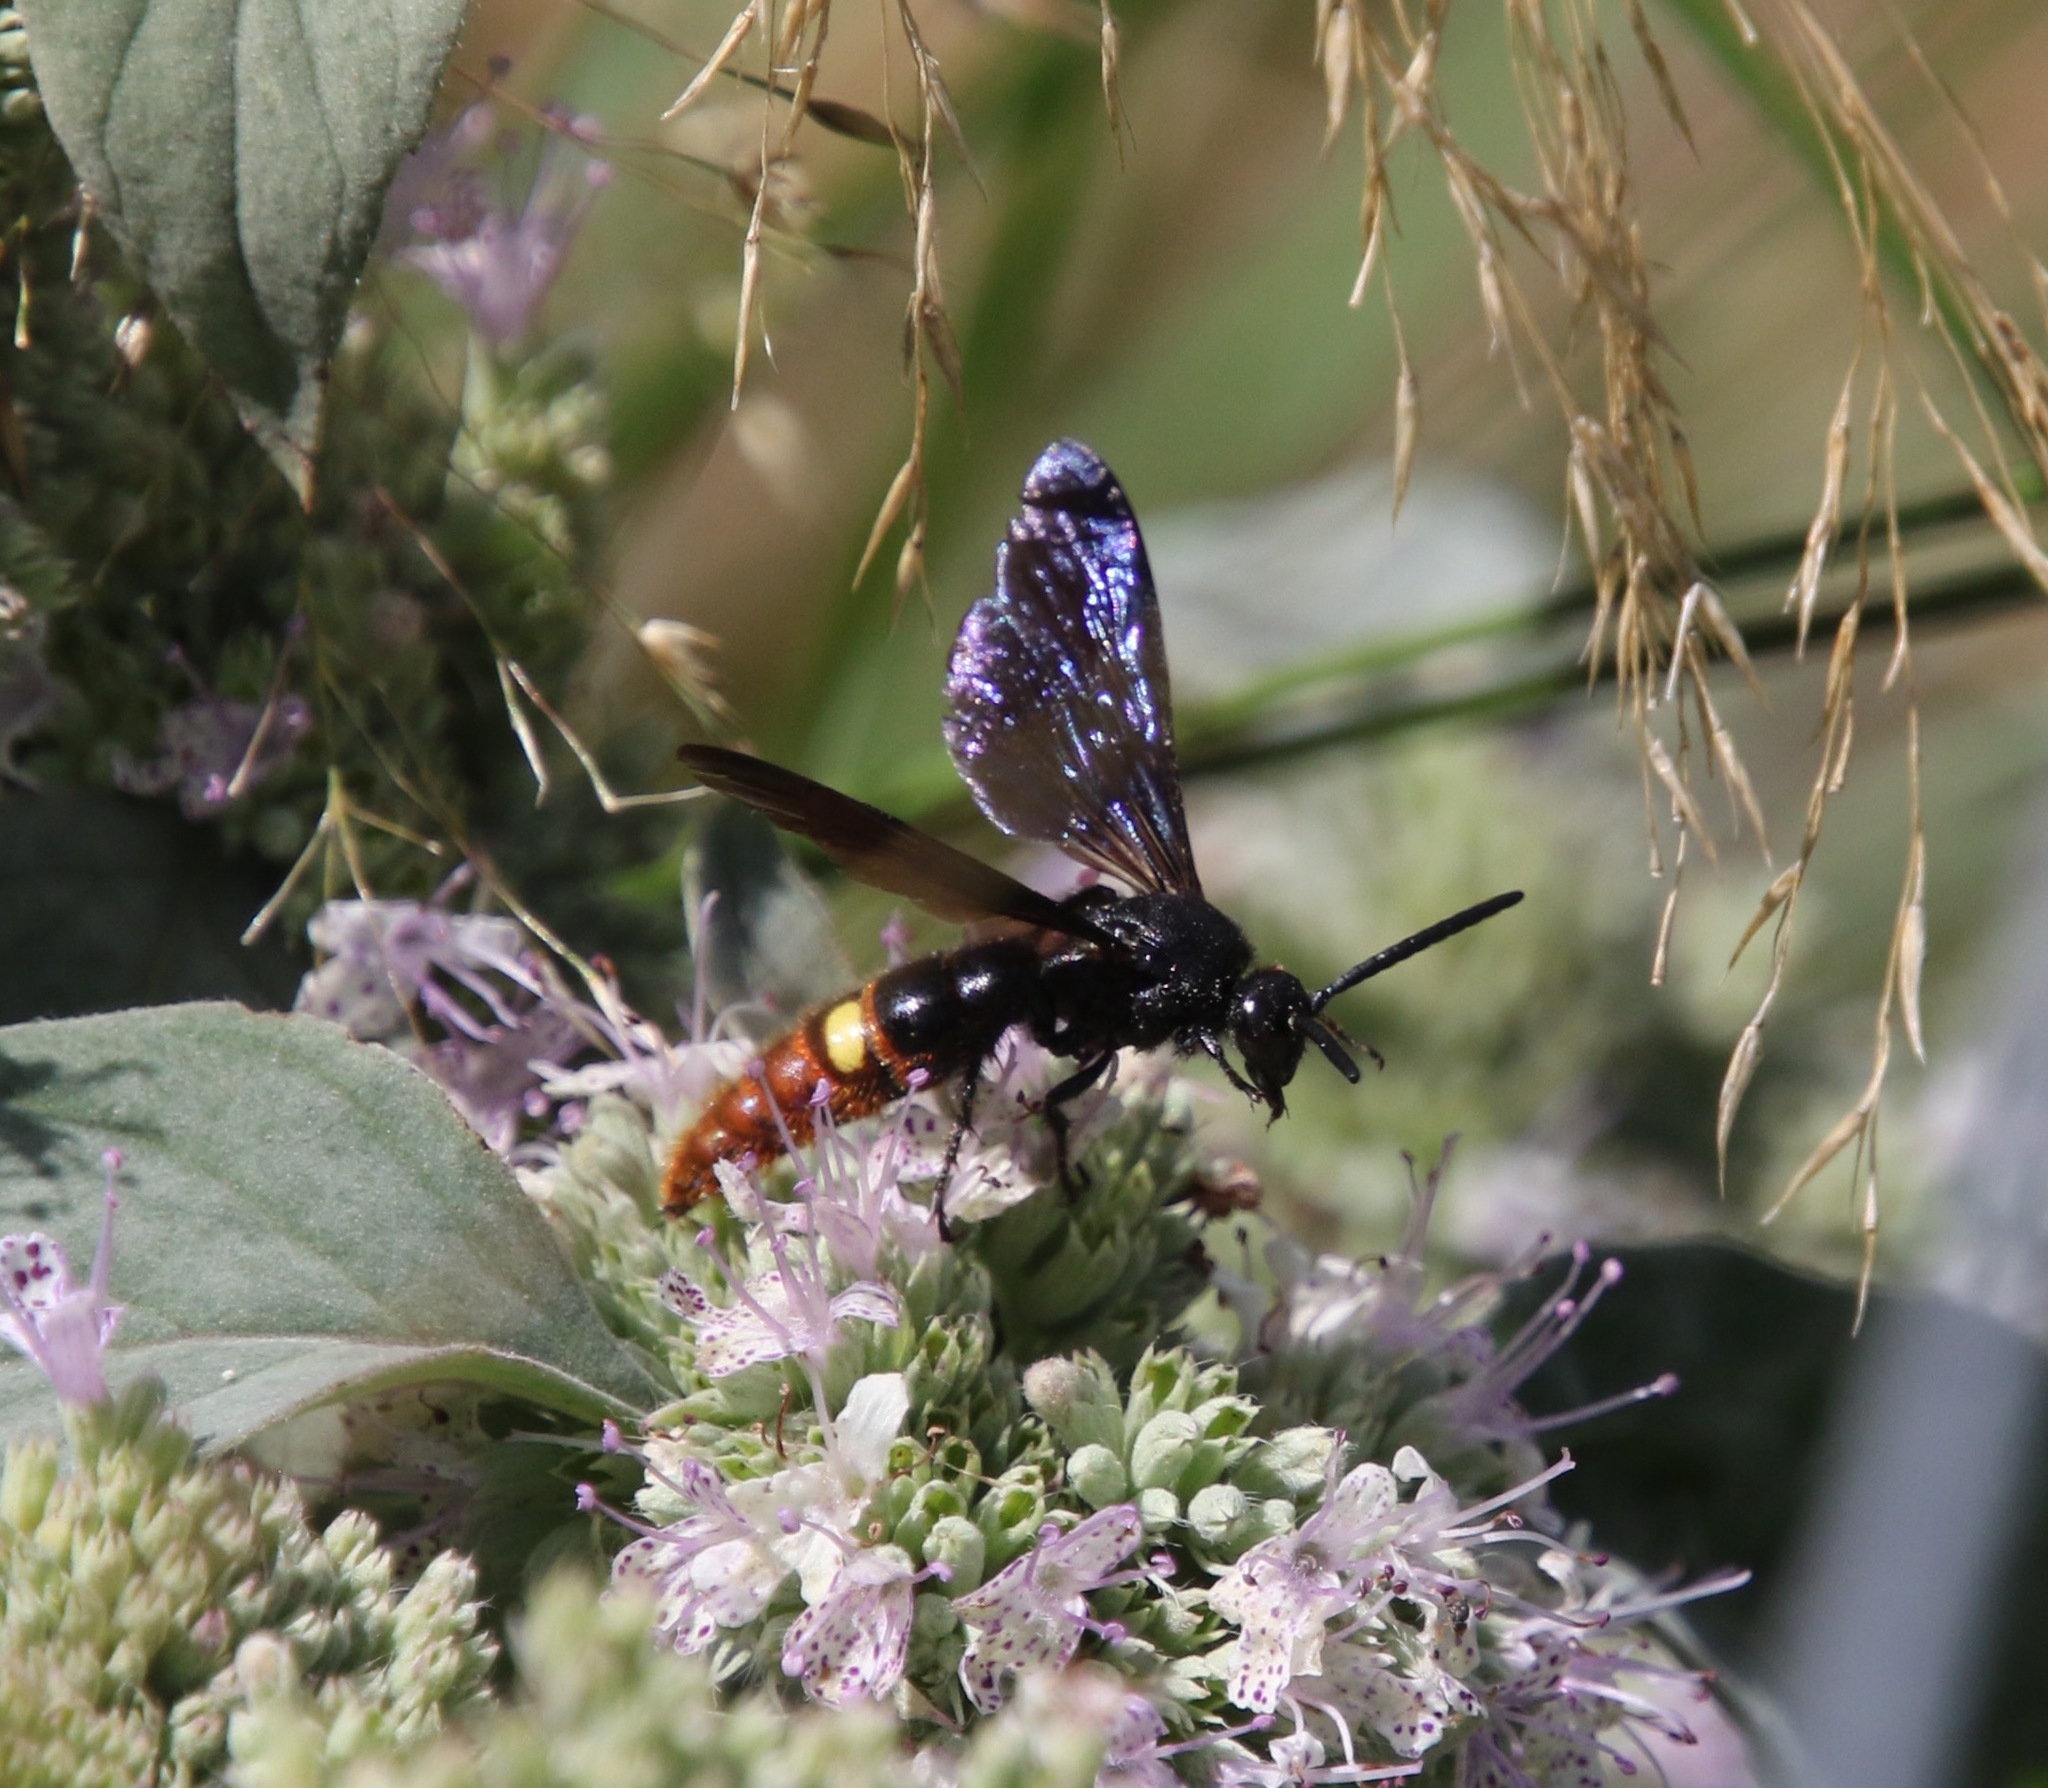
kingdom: Animalia
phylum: Arthropoda
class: Insecta
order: Hymenoptera
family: Scoliidae
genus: Scolia
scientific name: Scolia dubia
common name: Blue-winged scoliid wasp
